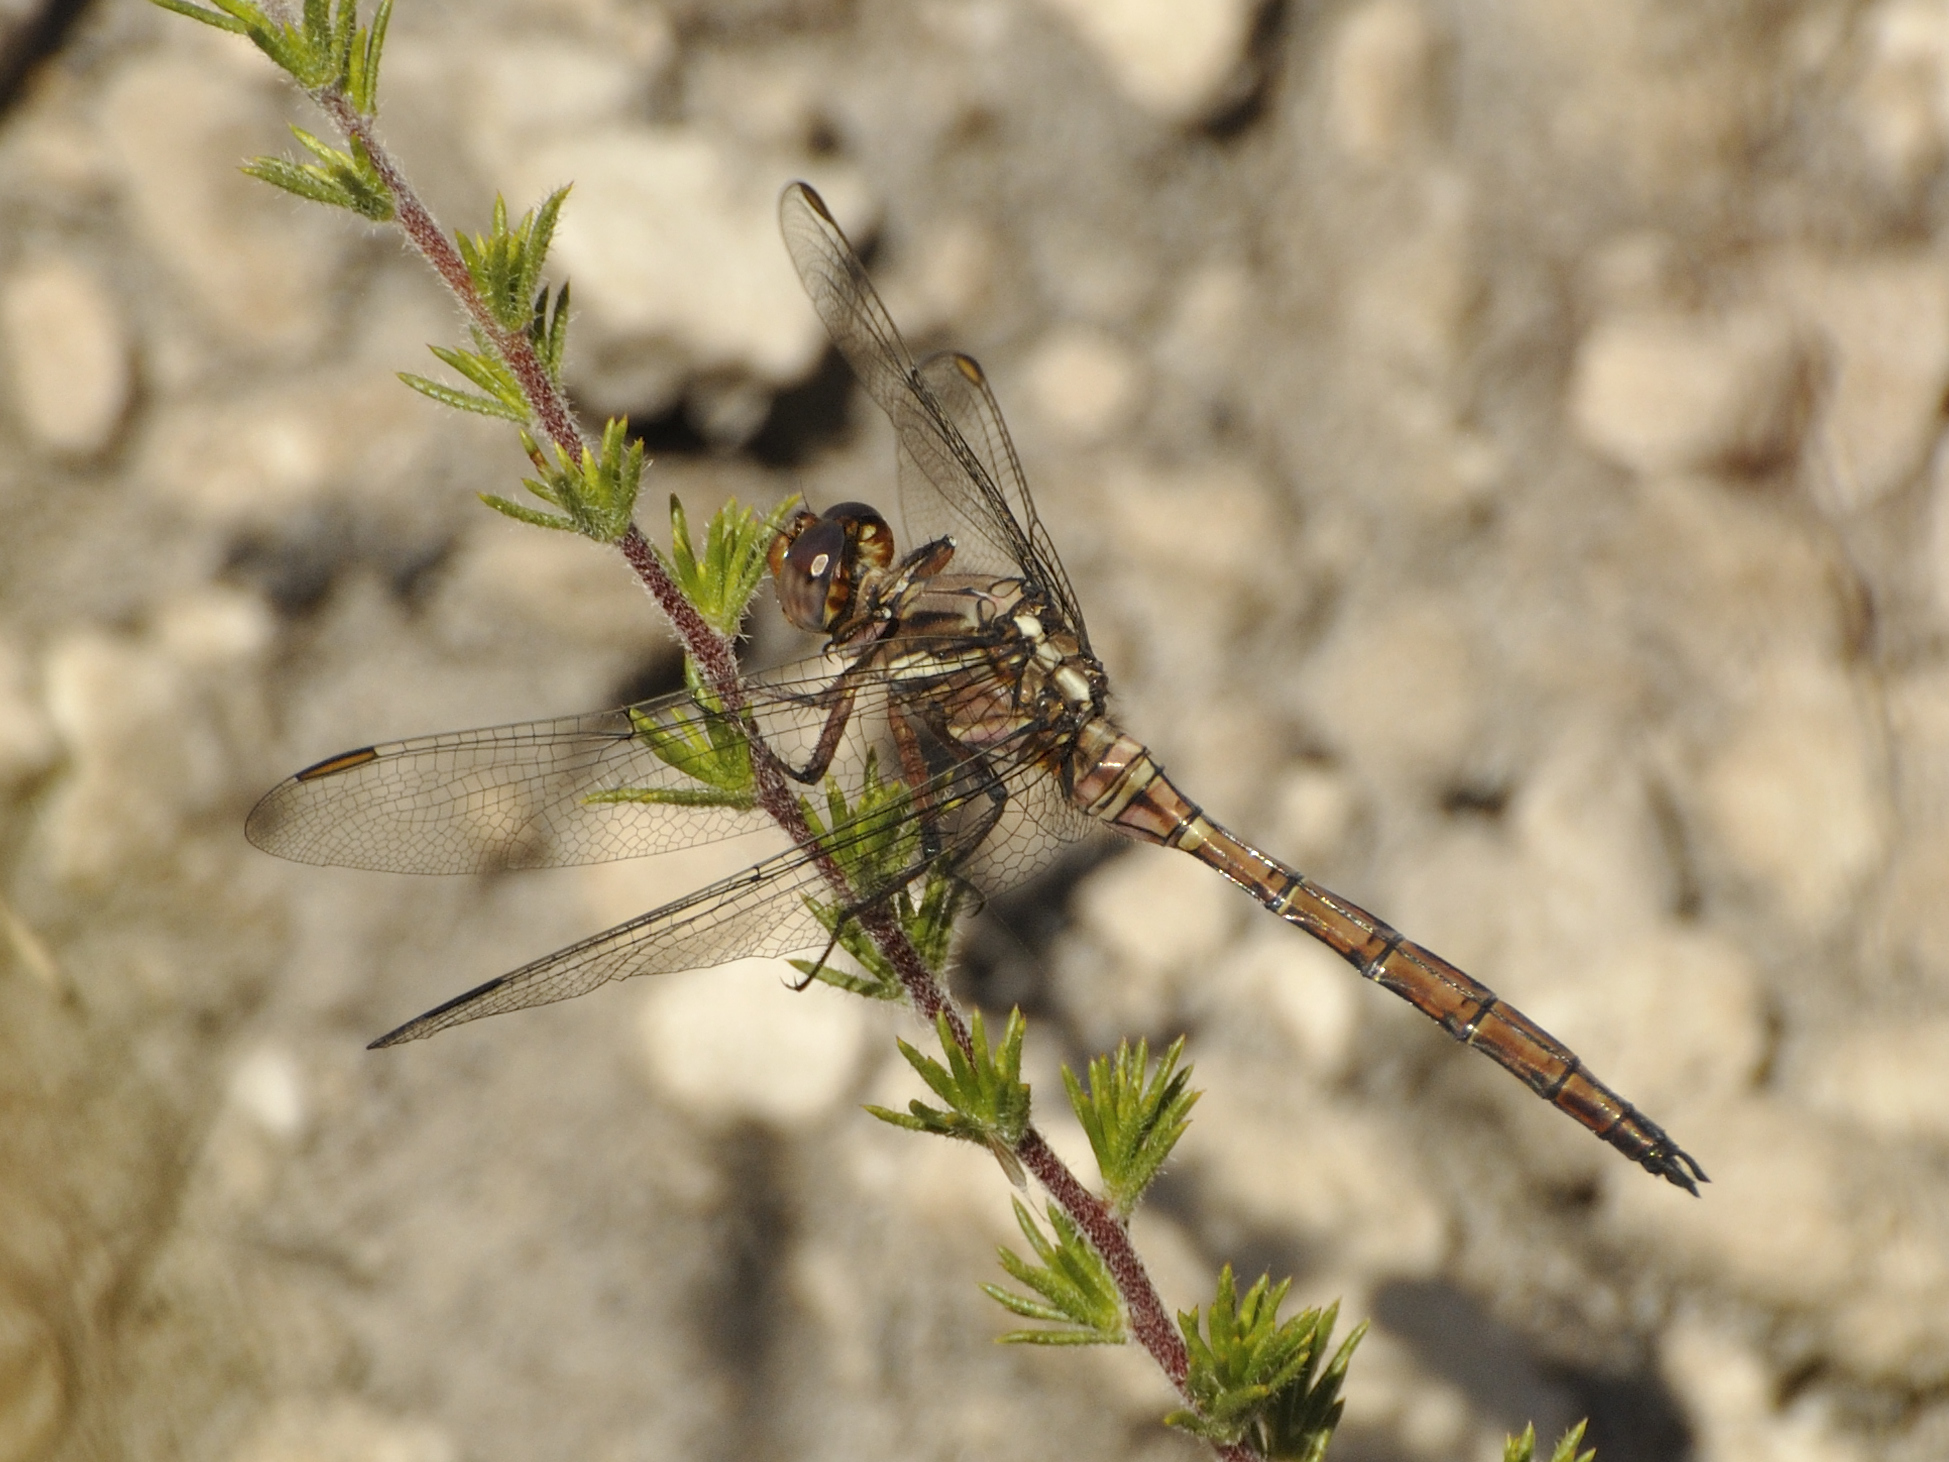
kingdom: Animalia
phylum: Arthropoda
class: Insecta
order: Odonata
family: Libellulidae
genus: Orthetrum
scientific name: Orthetrum julia
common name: Julia skimmer
